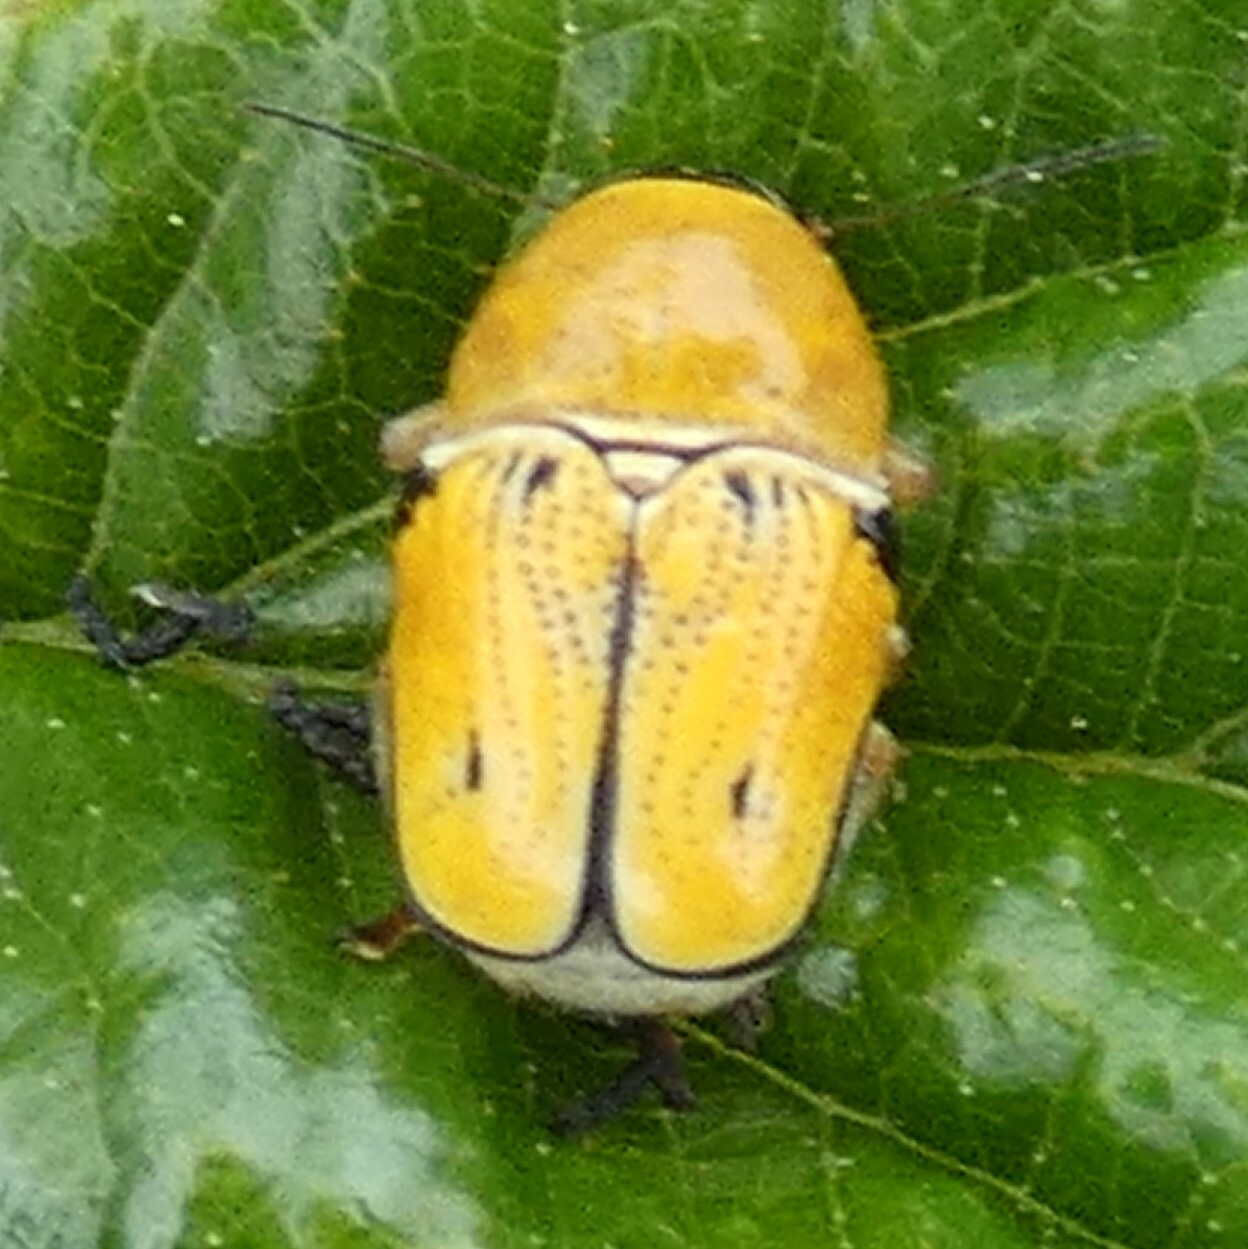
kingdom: Animalia
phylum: Arthropoda
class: Insecta
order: Coleoptera
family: Chrysomelidae
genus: Griburius
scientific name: Griburius larvatus
